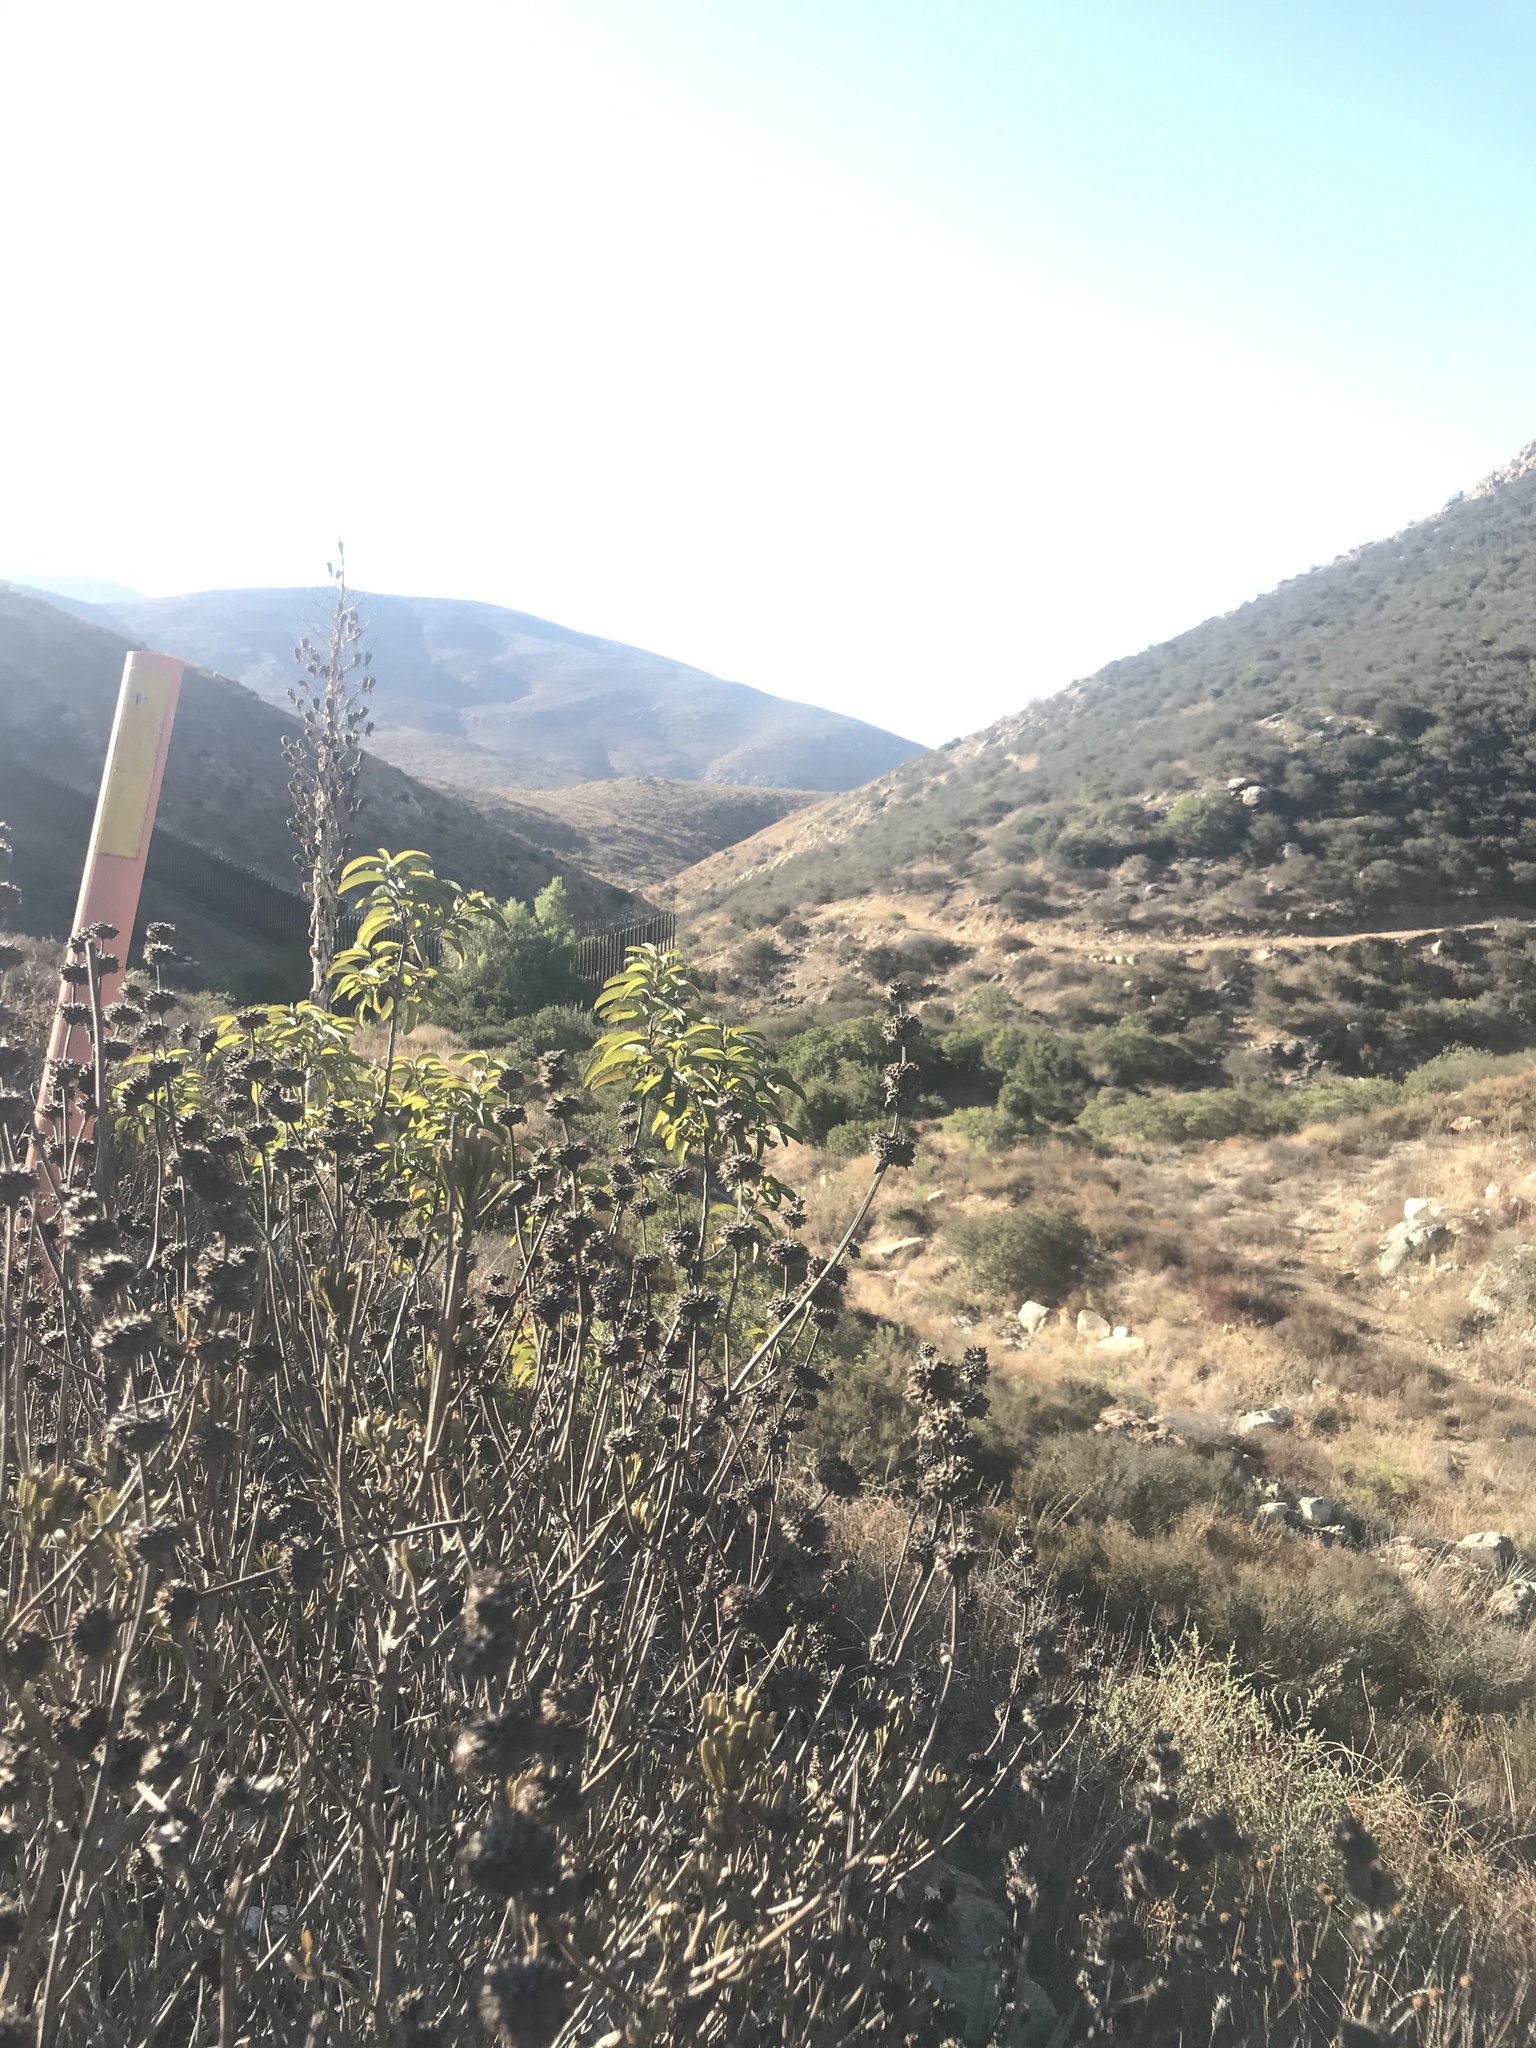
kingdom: Plantae
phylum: Tracheophyta
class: Magnoliopsida
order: Lamiales
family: Lamiaceae
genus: Salvia
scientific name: Salvia munzii
